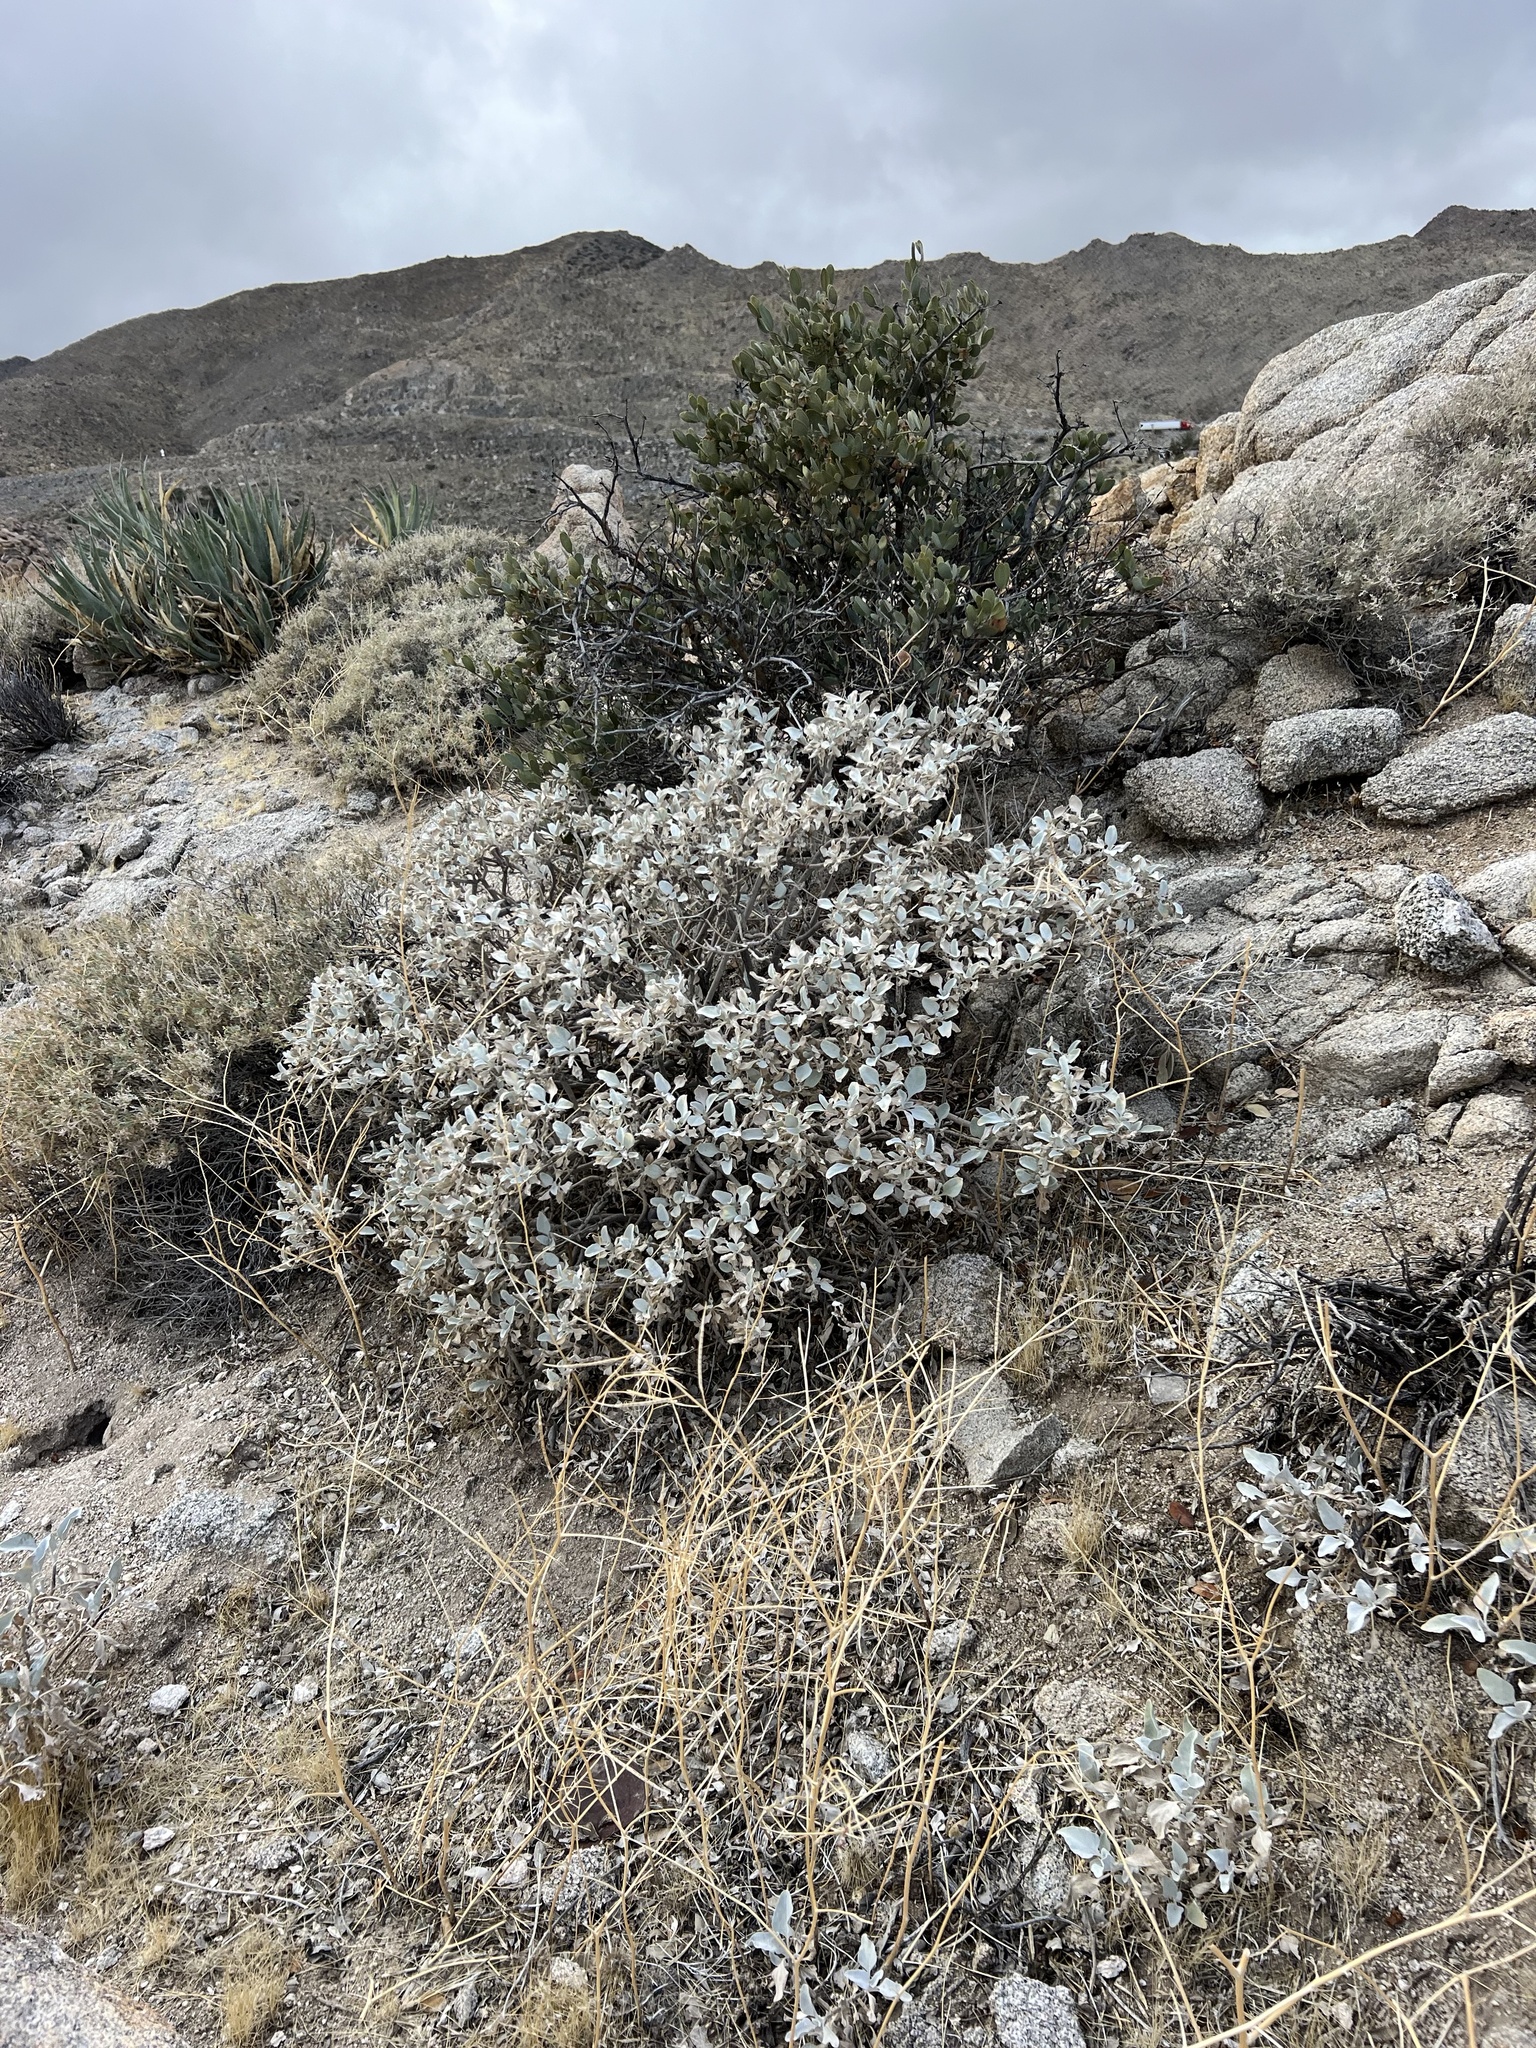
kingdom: Plantae
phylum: Tracheophyta
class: Magnoliopsida
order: Asterales
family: Asteraceae
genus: Encelia
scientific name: Encelia farinosa
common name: Brittlebush
